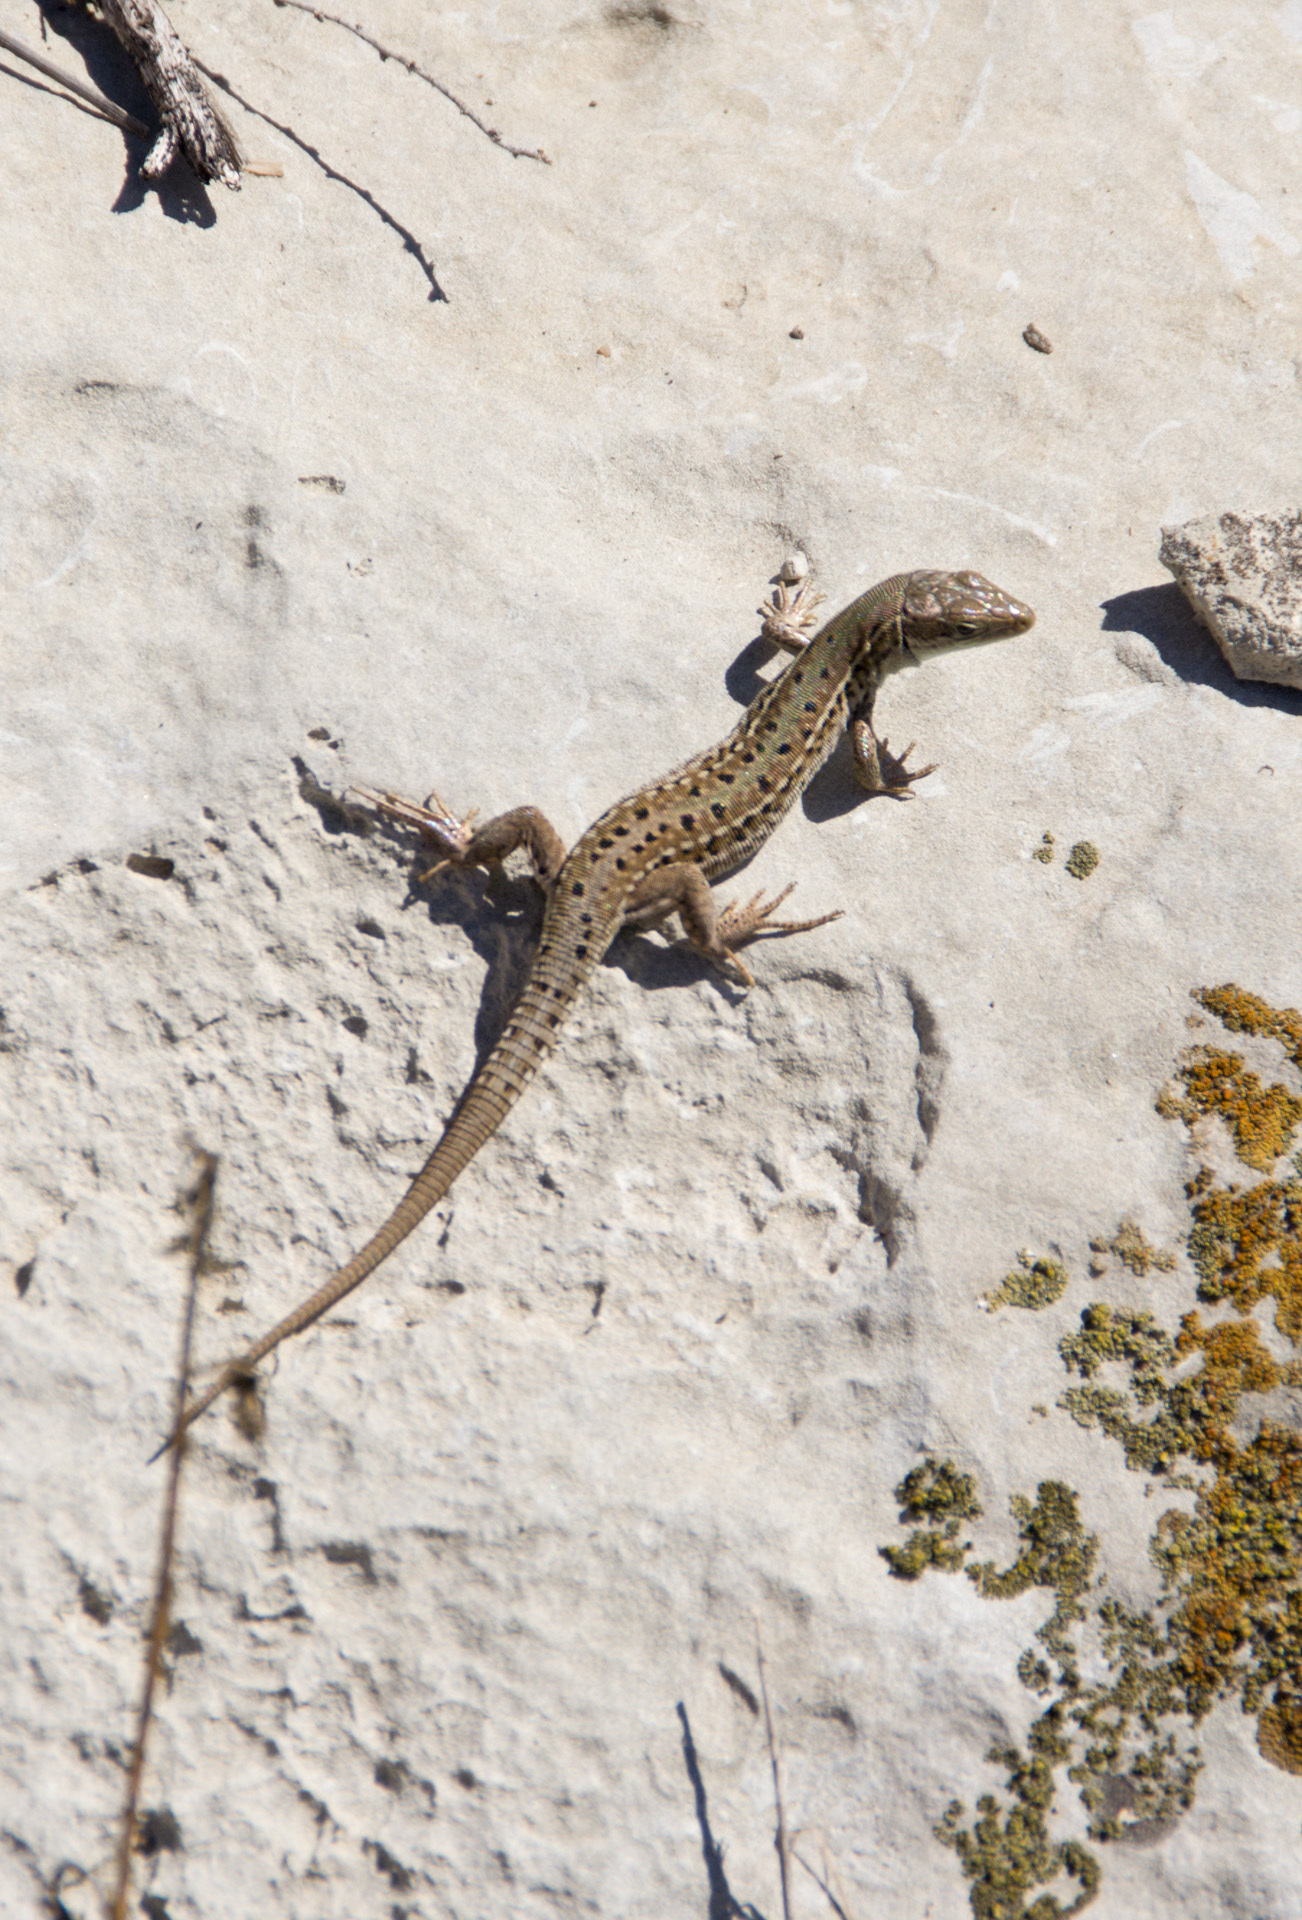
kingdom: Animalia
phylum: Chordata
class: Squamata
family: Lacertidae
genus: Podarcis
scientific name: Podarcis tauricus
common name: Balkan wall lizard
